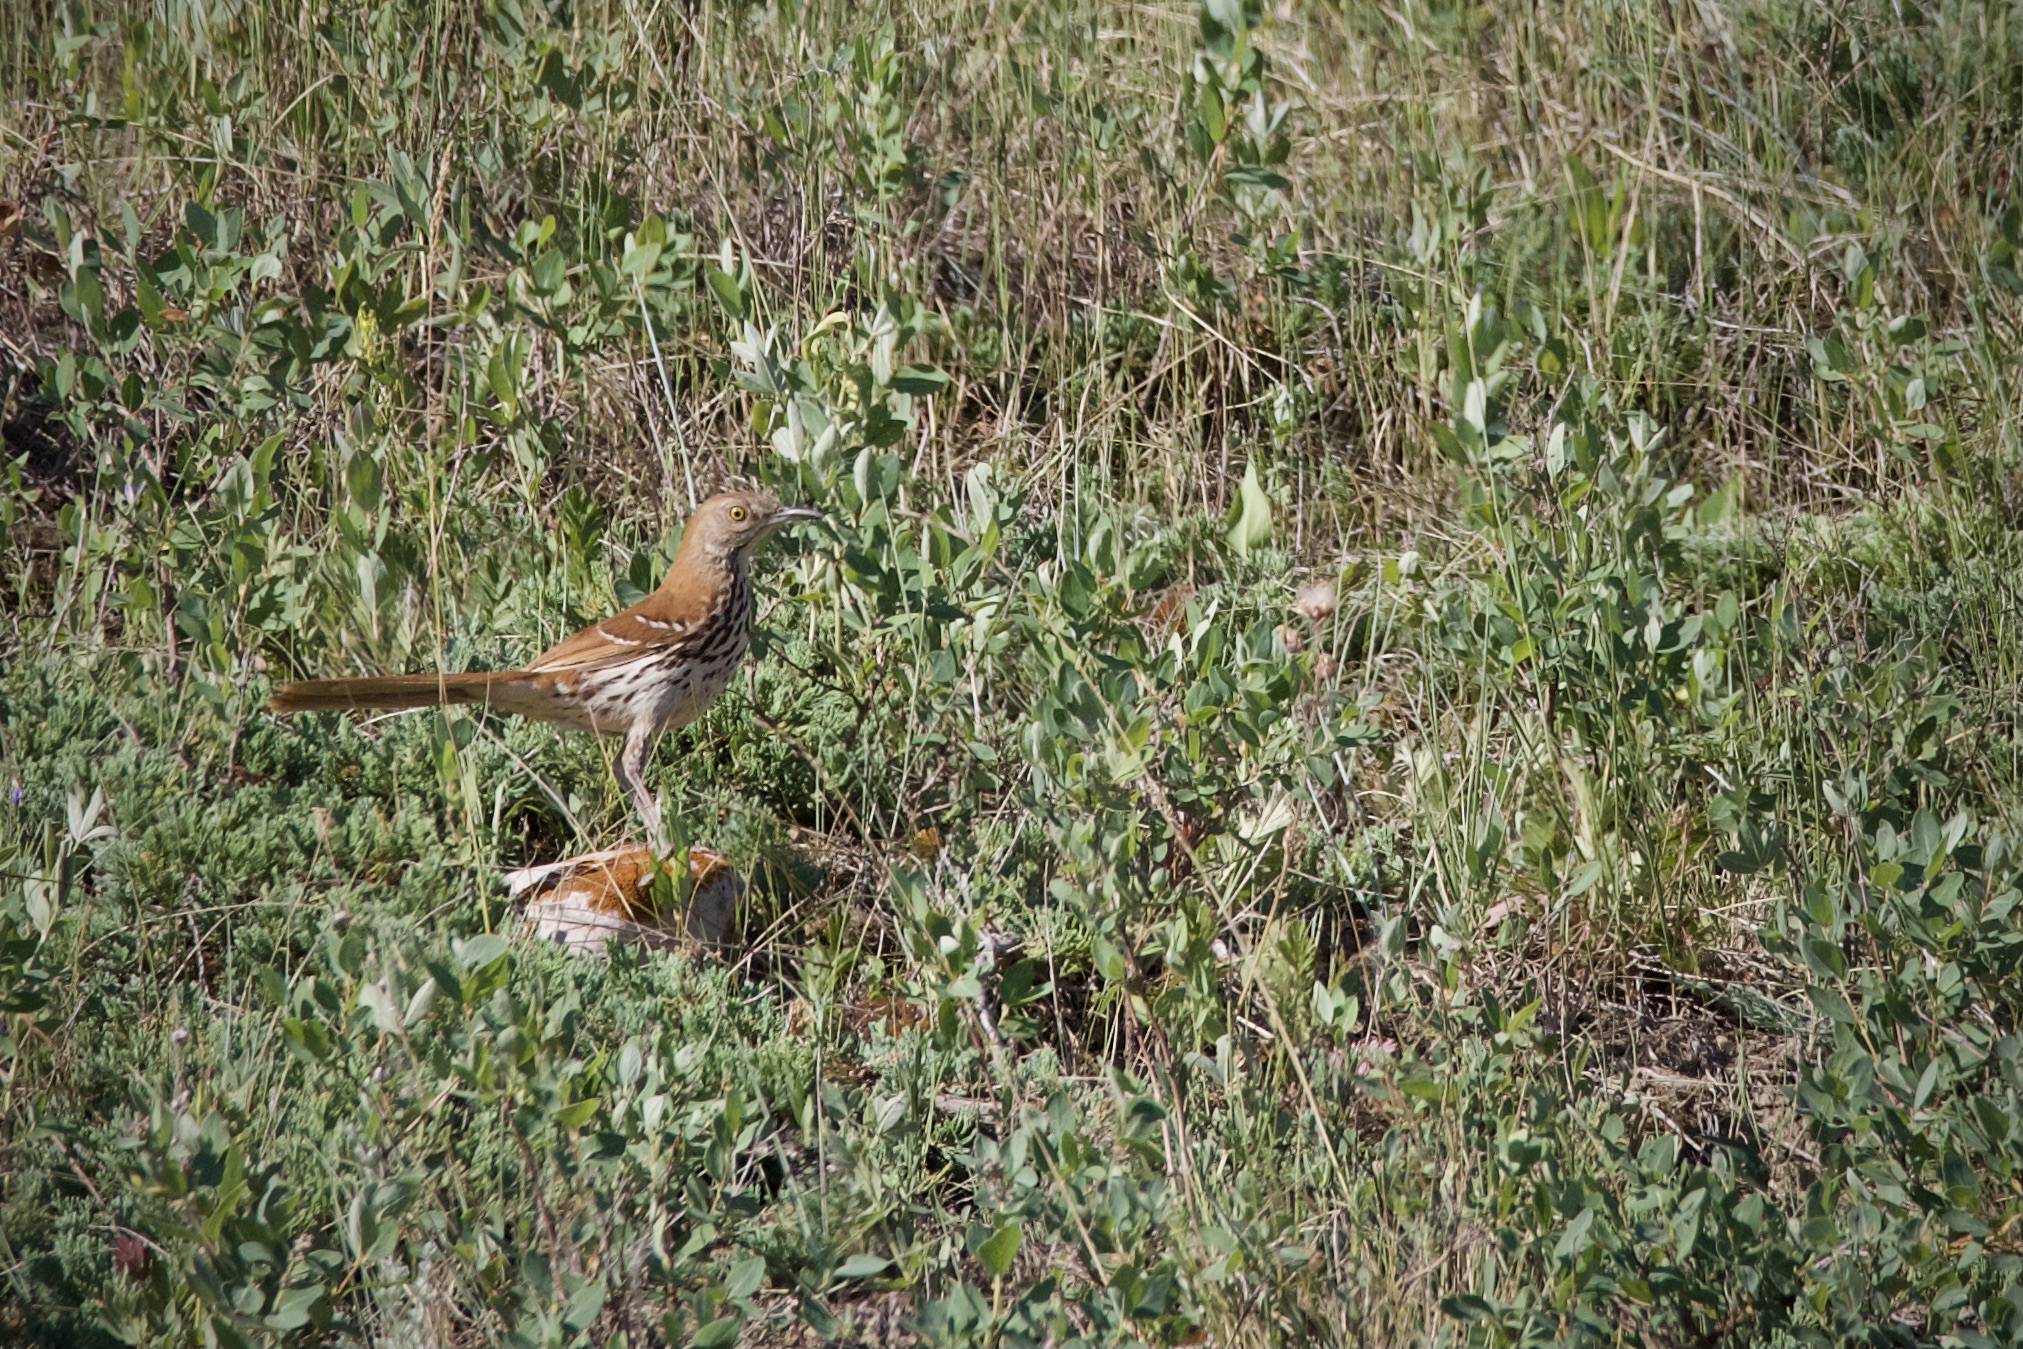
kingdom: Animalia
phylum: Chordata
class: Aves
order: Passeriformes
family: Mimidae
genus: Toxostoma
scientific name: Toxostoma rufum
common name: Brown thrasher
